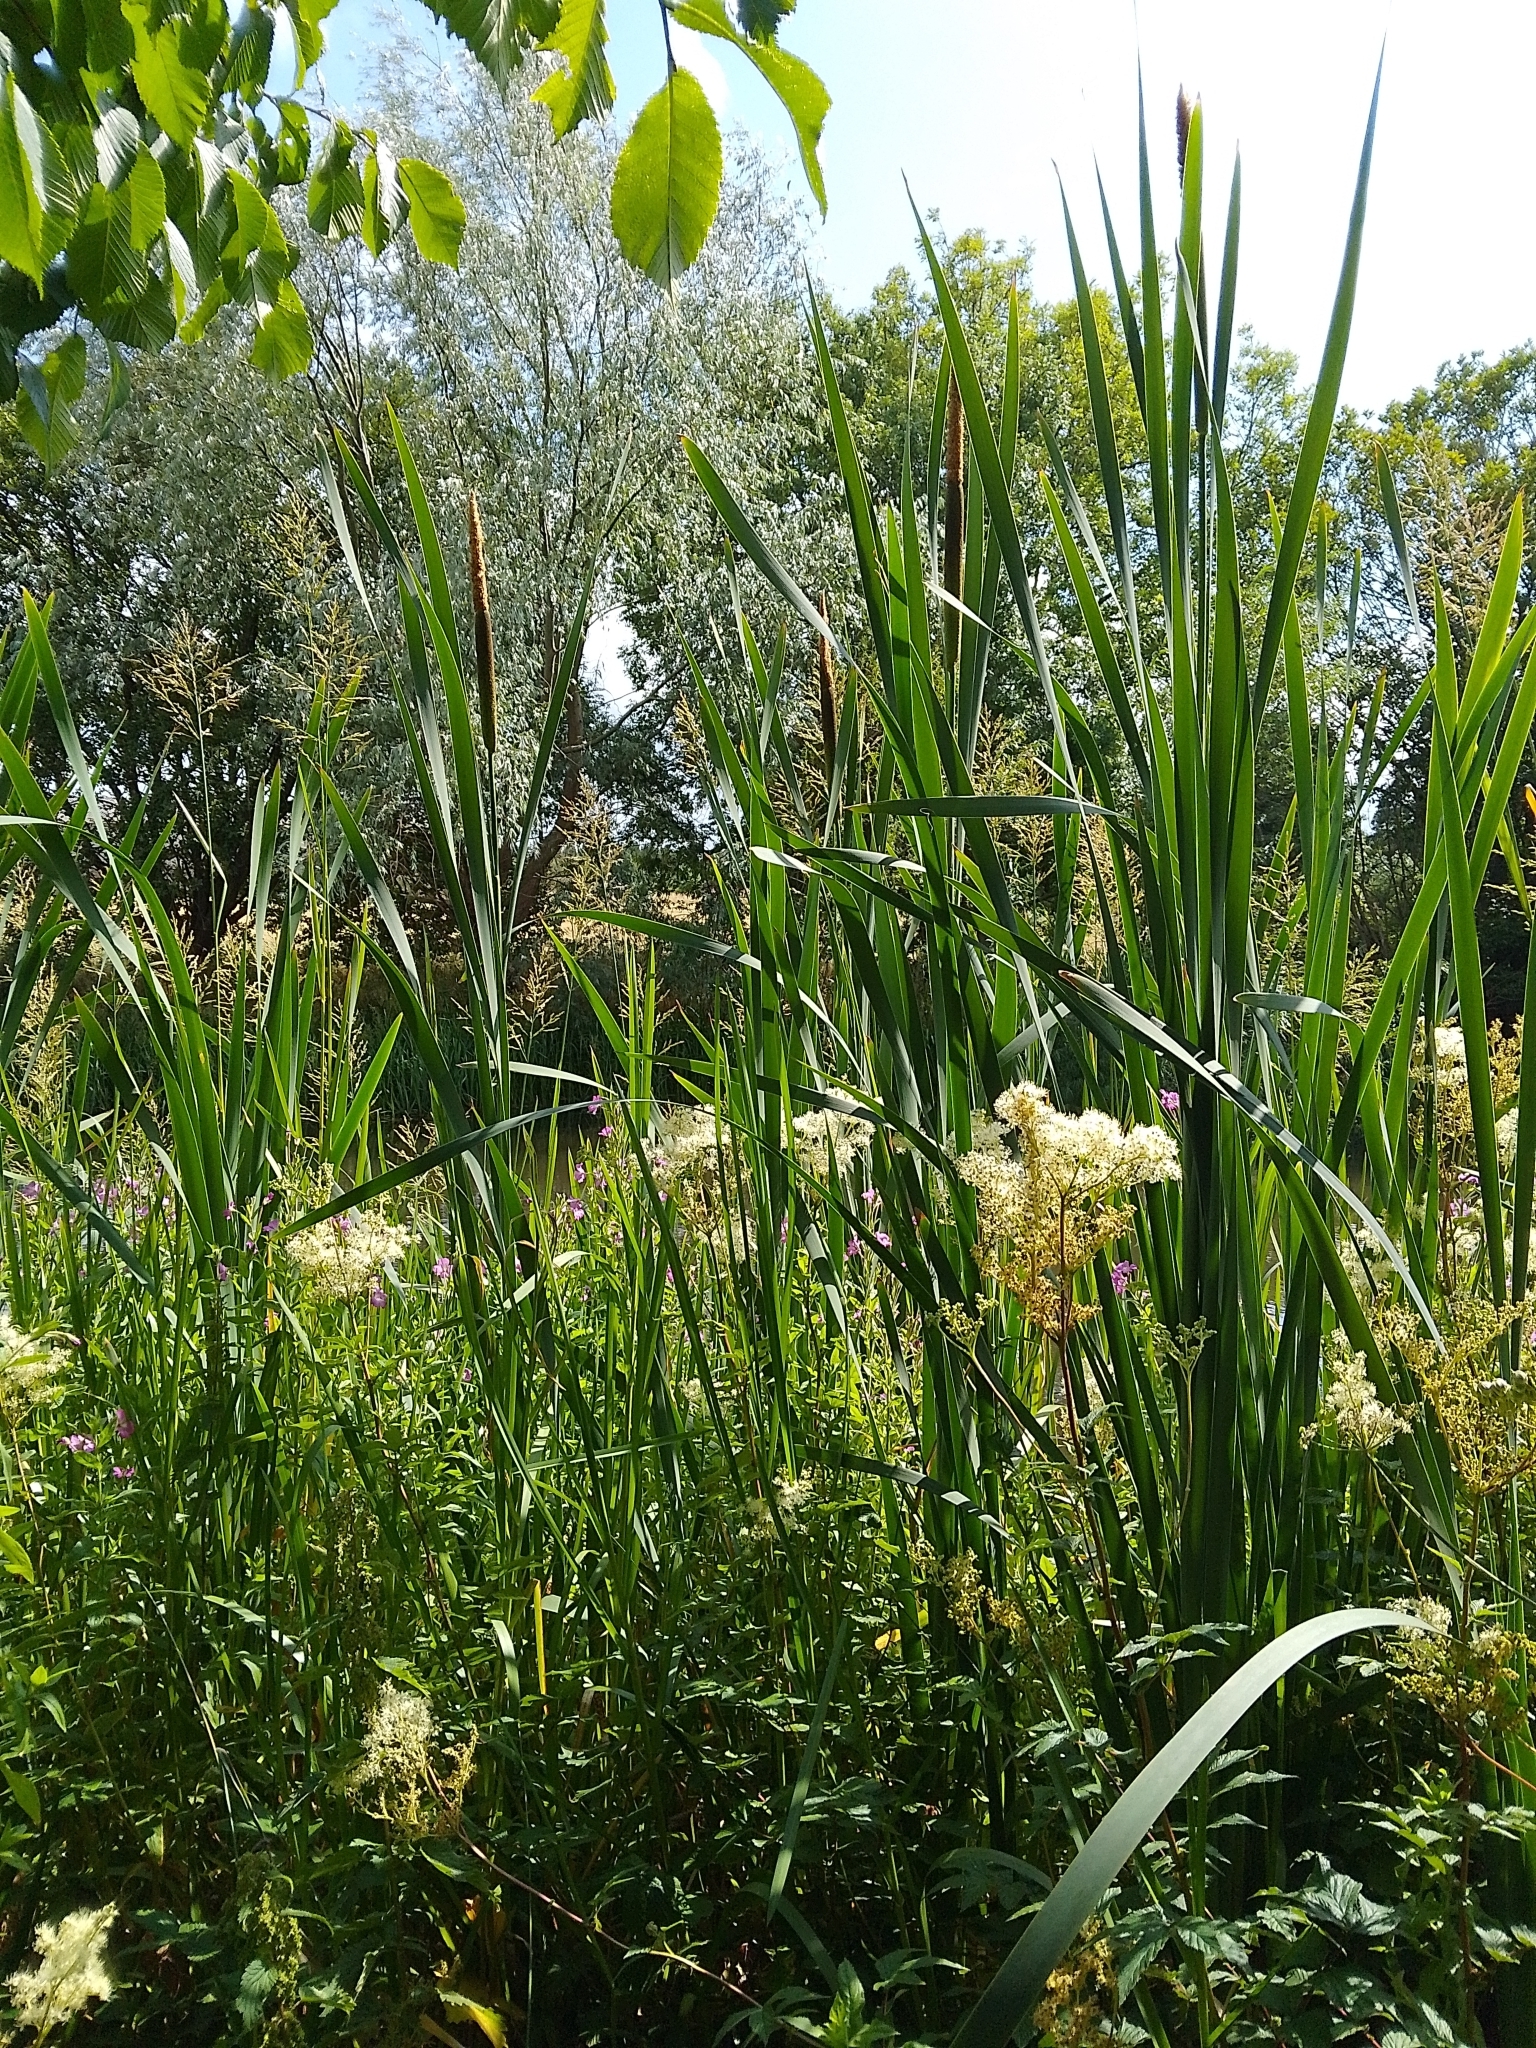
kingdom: Plantae
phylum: Tracheophyta
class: Liliopsida
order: Poales
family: Typhaceae
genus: Typha
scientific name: Typha latifolia
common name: Broadleaf cattail
